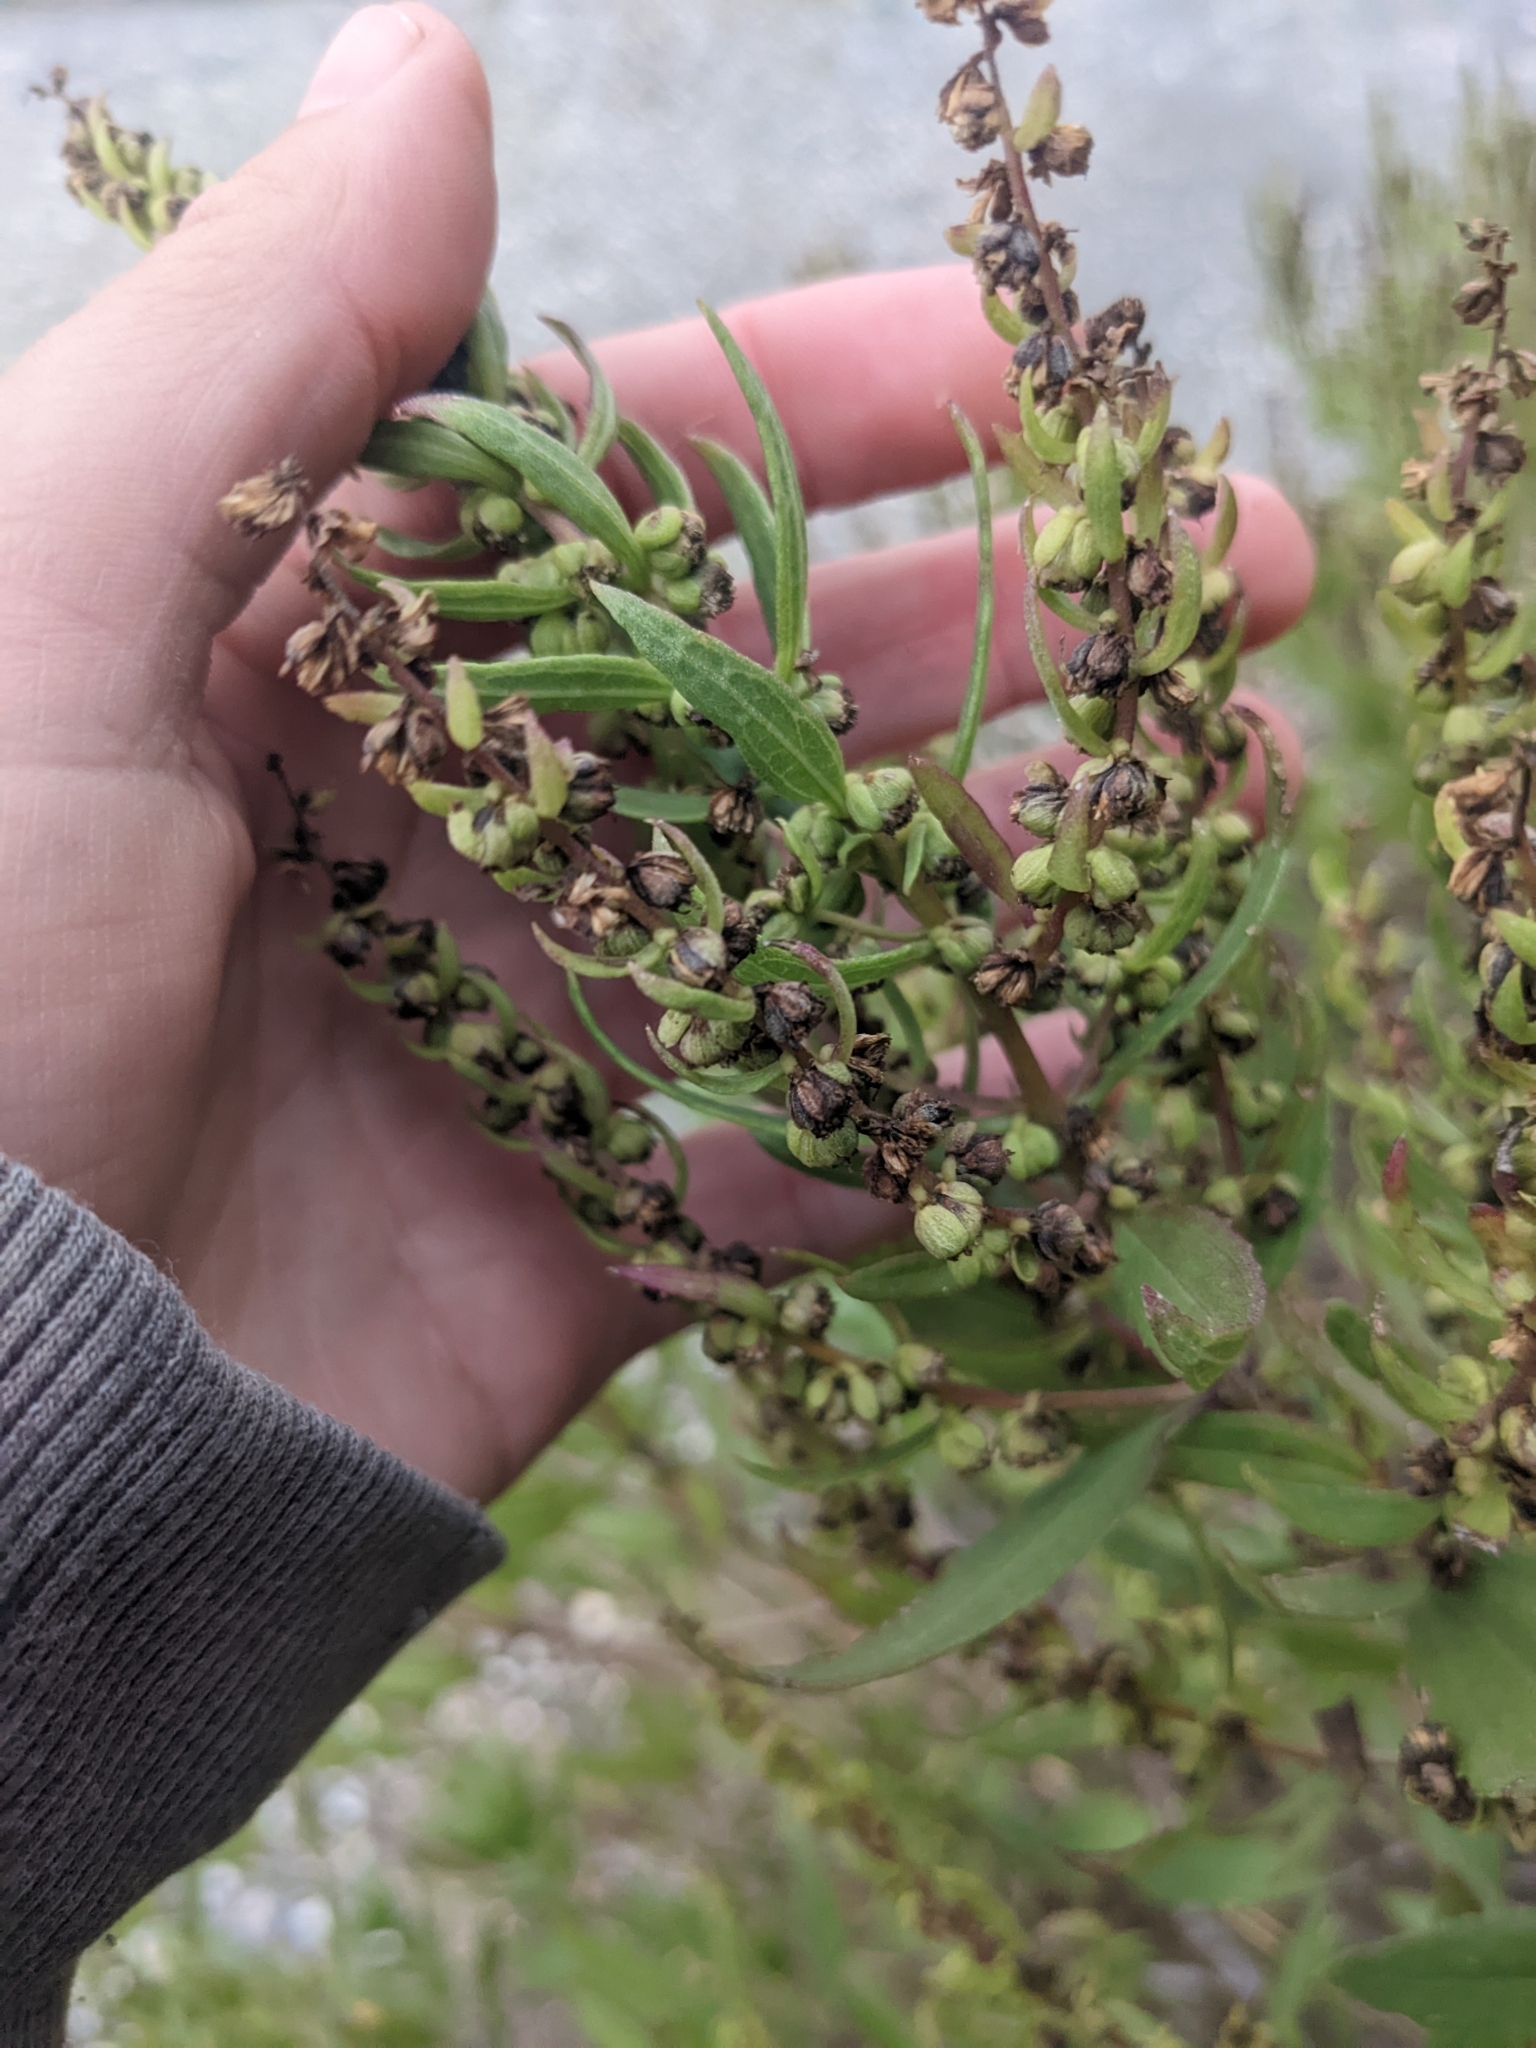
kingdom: Plantae
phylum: Tracheophyta
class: Magnoliopsida
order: Asterales
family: Asteraceae
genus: Iva
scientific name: Iva frutescens
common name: Big-leaved marsh-elder
